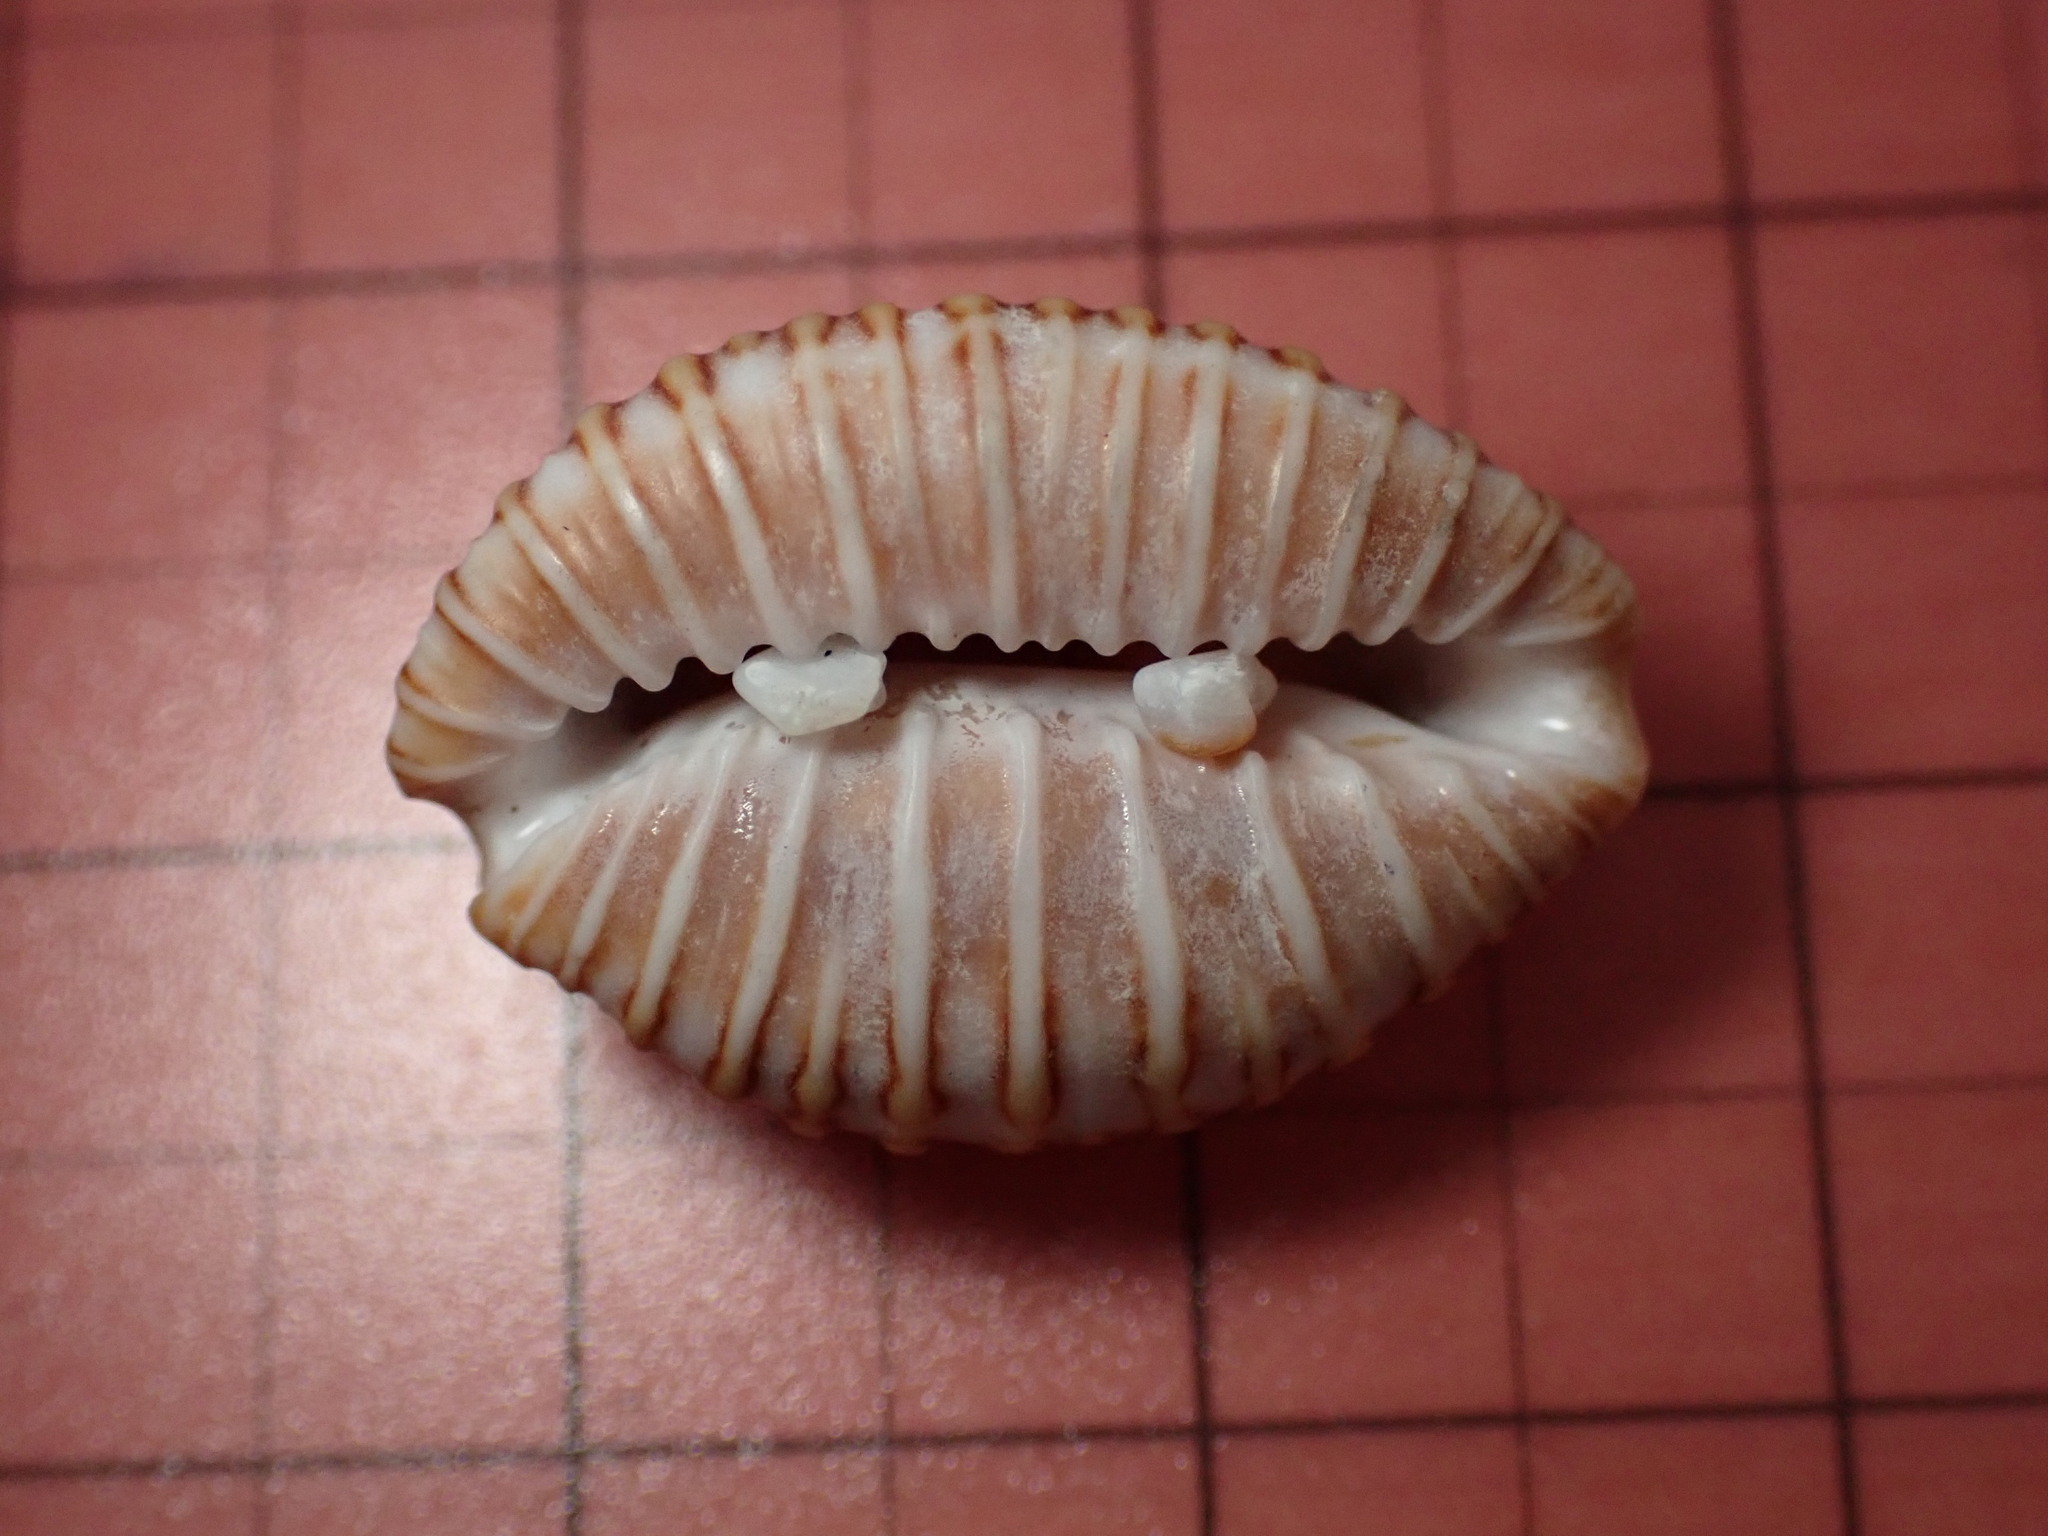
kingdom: Animalia
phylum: Mollusca
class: Gastropoda
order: Littorinimorpha
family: Pediculariidae
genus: Jenneria
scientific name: Jenneria pustulata
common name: Pustuled cowrie
